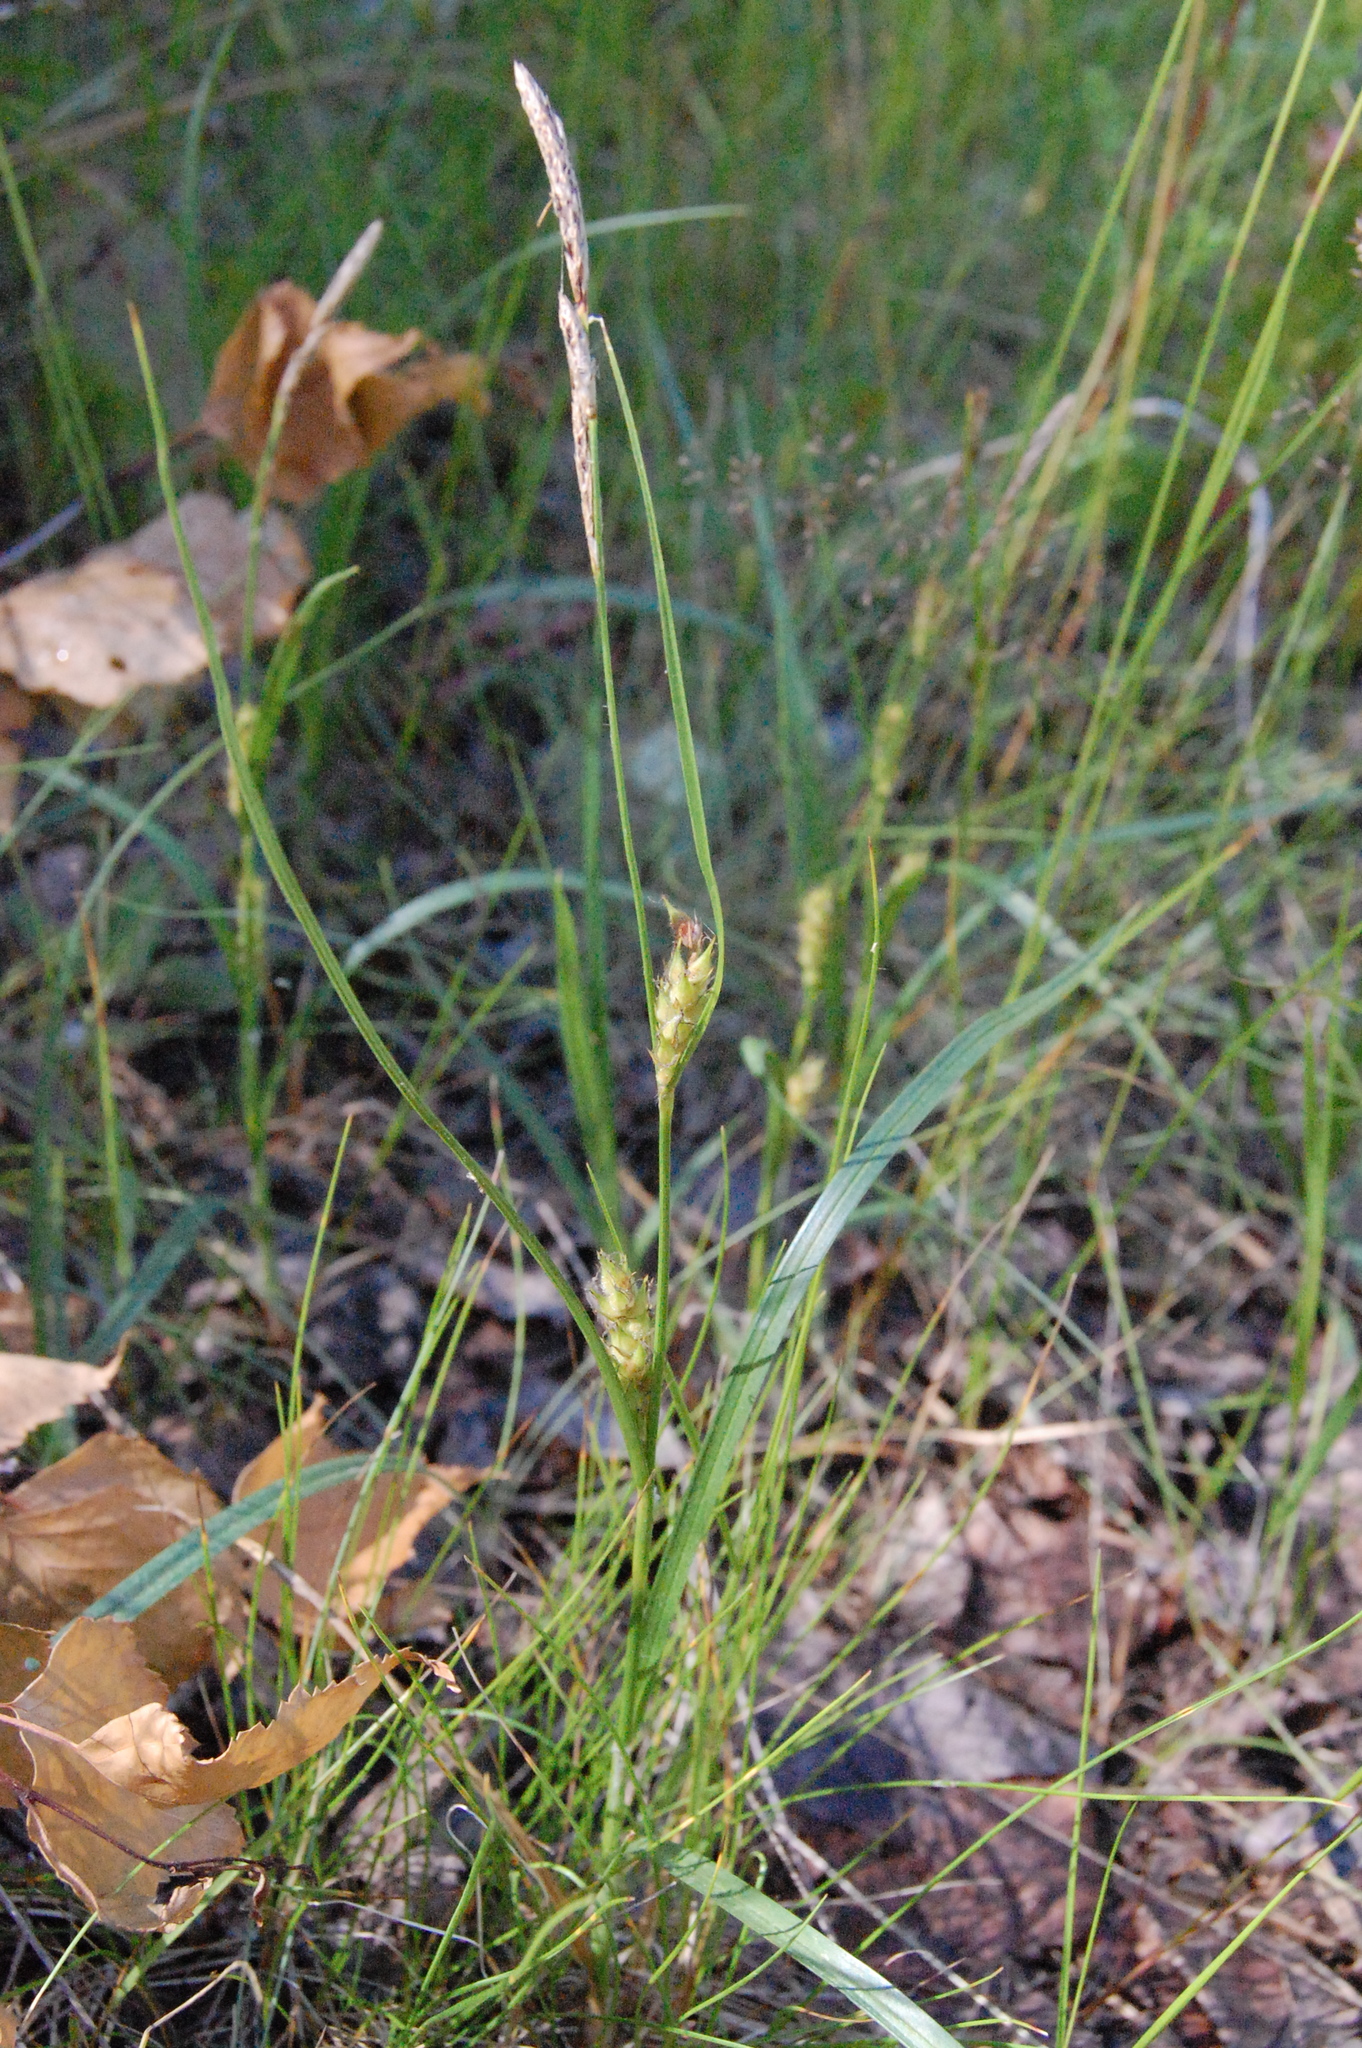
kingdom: Plantae
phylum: Tracheophyta
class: Liliopsida
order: Poales
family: Cyperaceae
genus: Carex
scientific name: Carex hirta
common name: Hairy sedge
